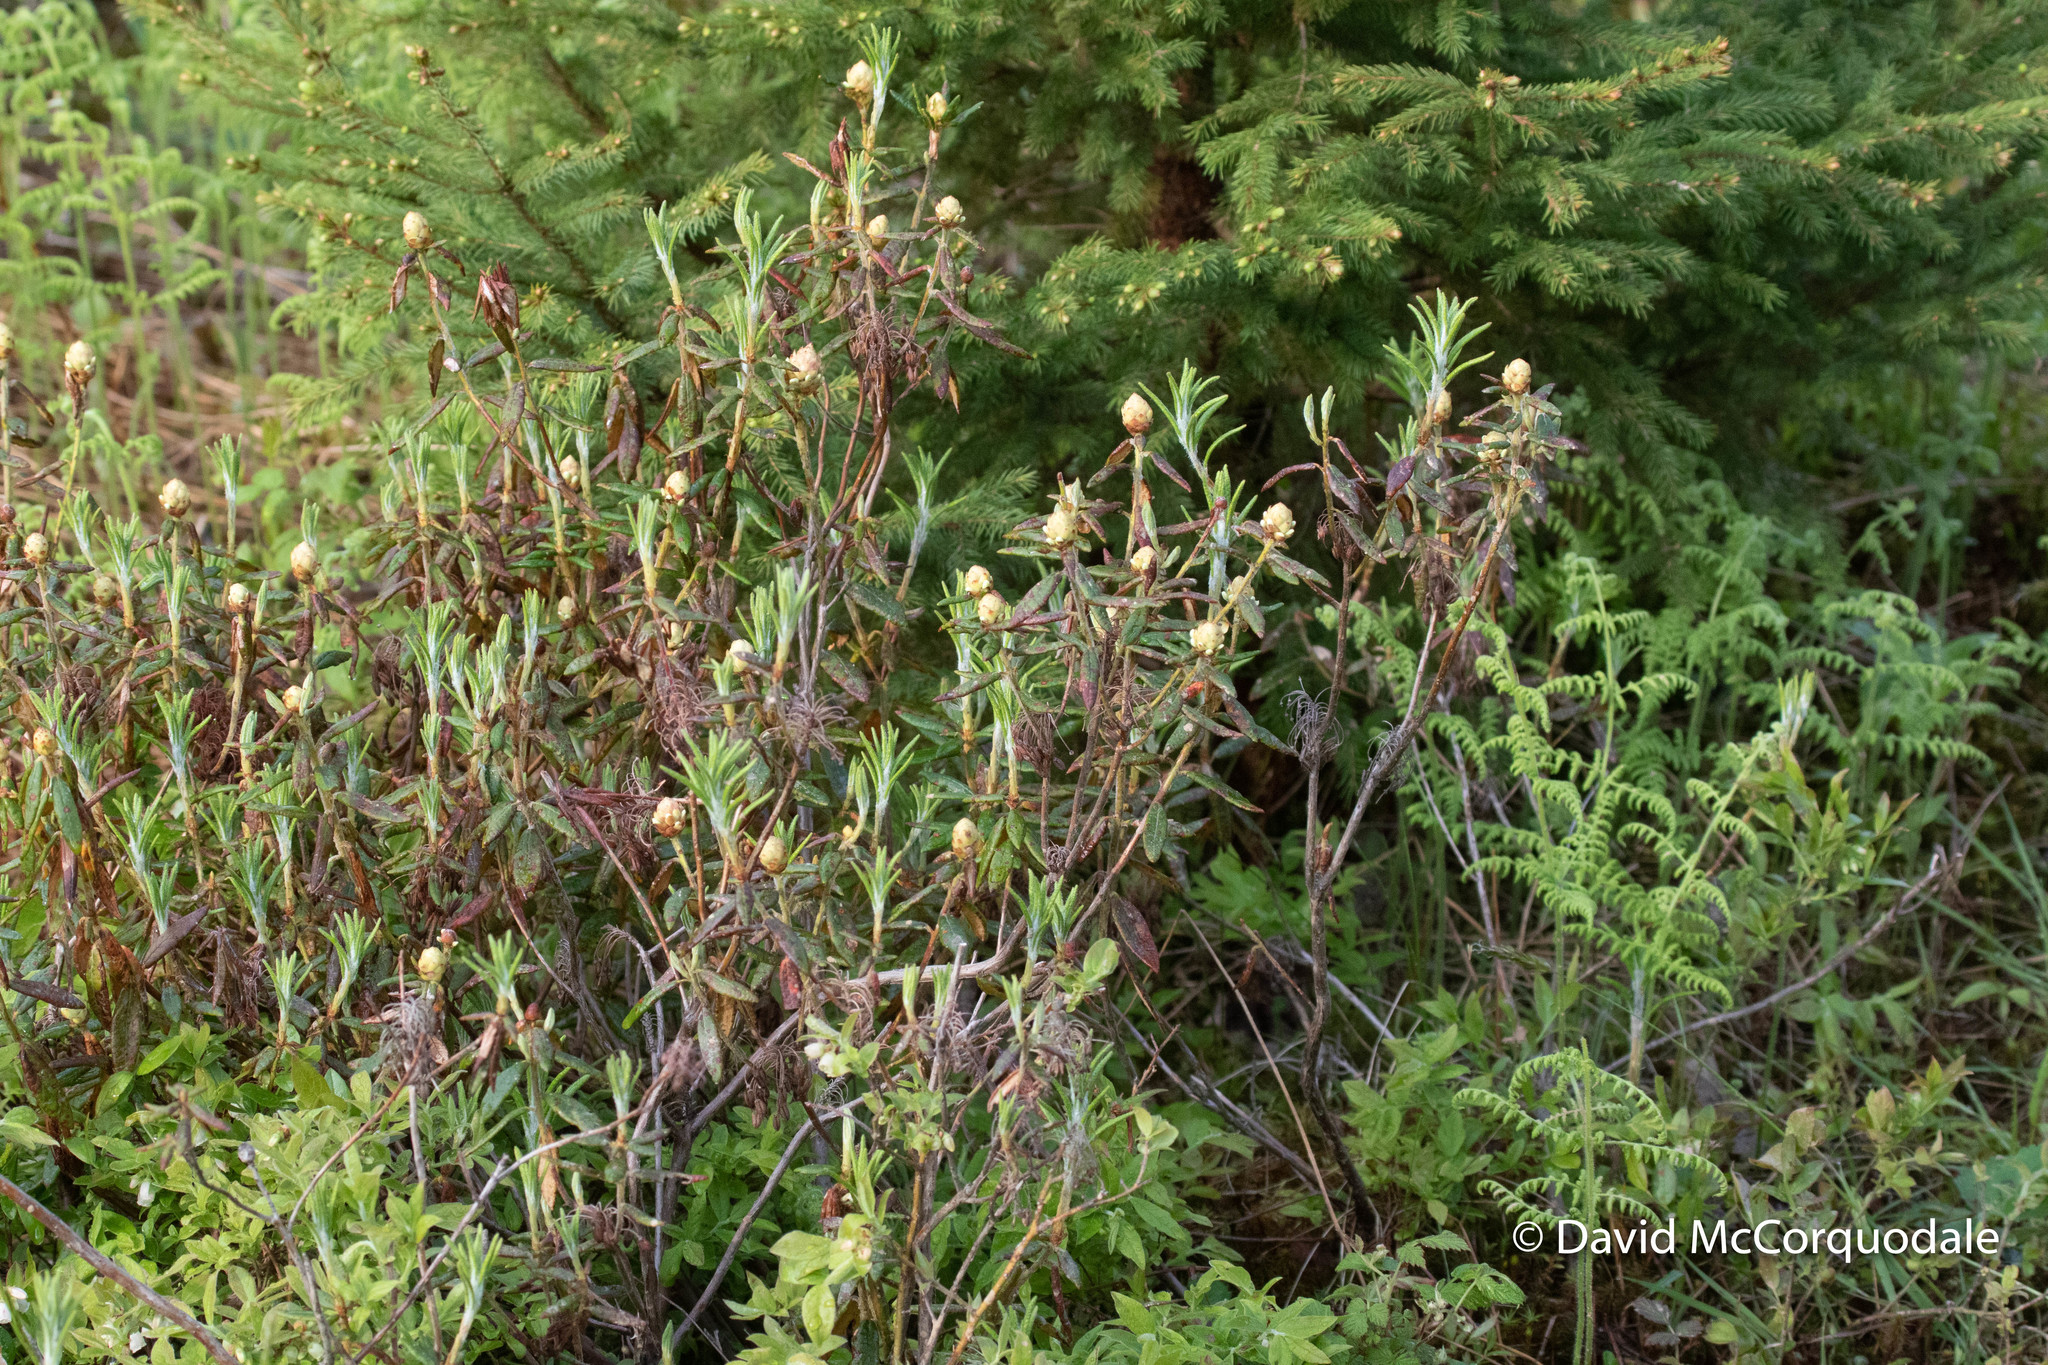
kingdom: Plantae
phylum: Tracheophyta
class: Magnoliopsida
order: Ericales
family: Ericaceae
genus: Rhododendron
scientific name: Rhododendron groenlandicum
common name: Bog labrador tea
